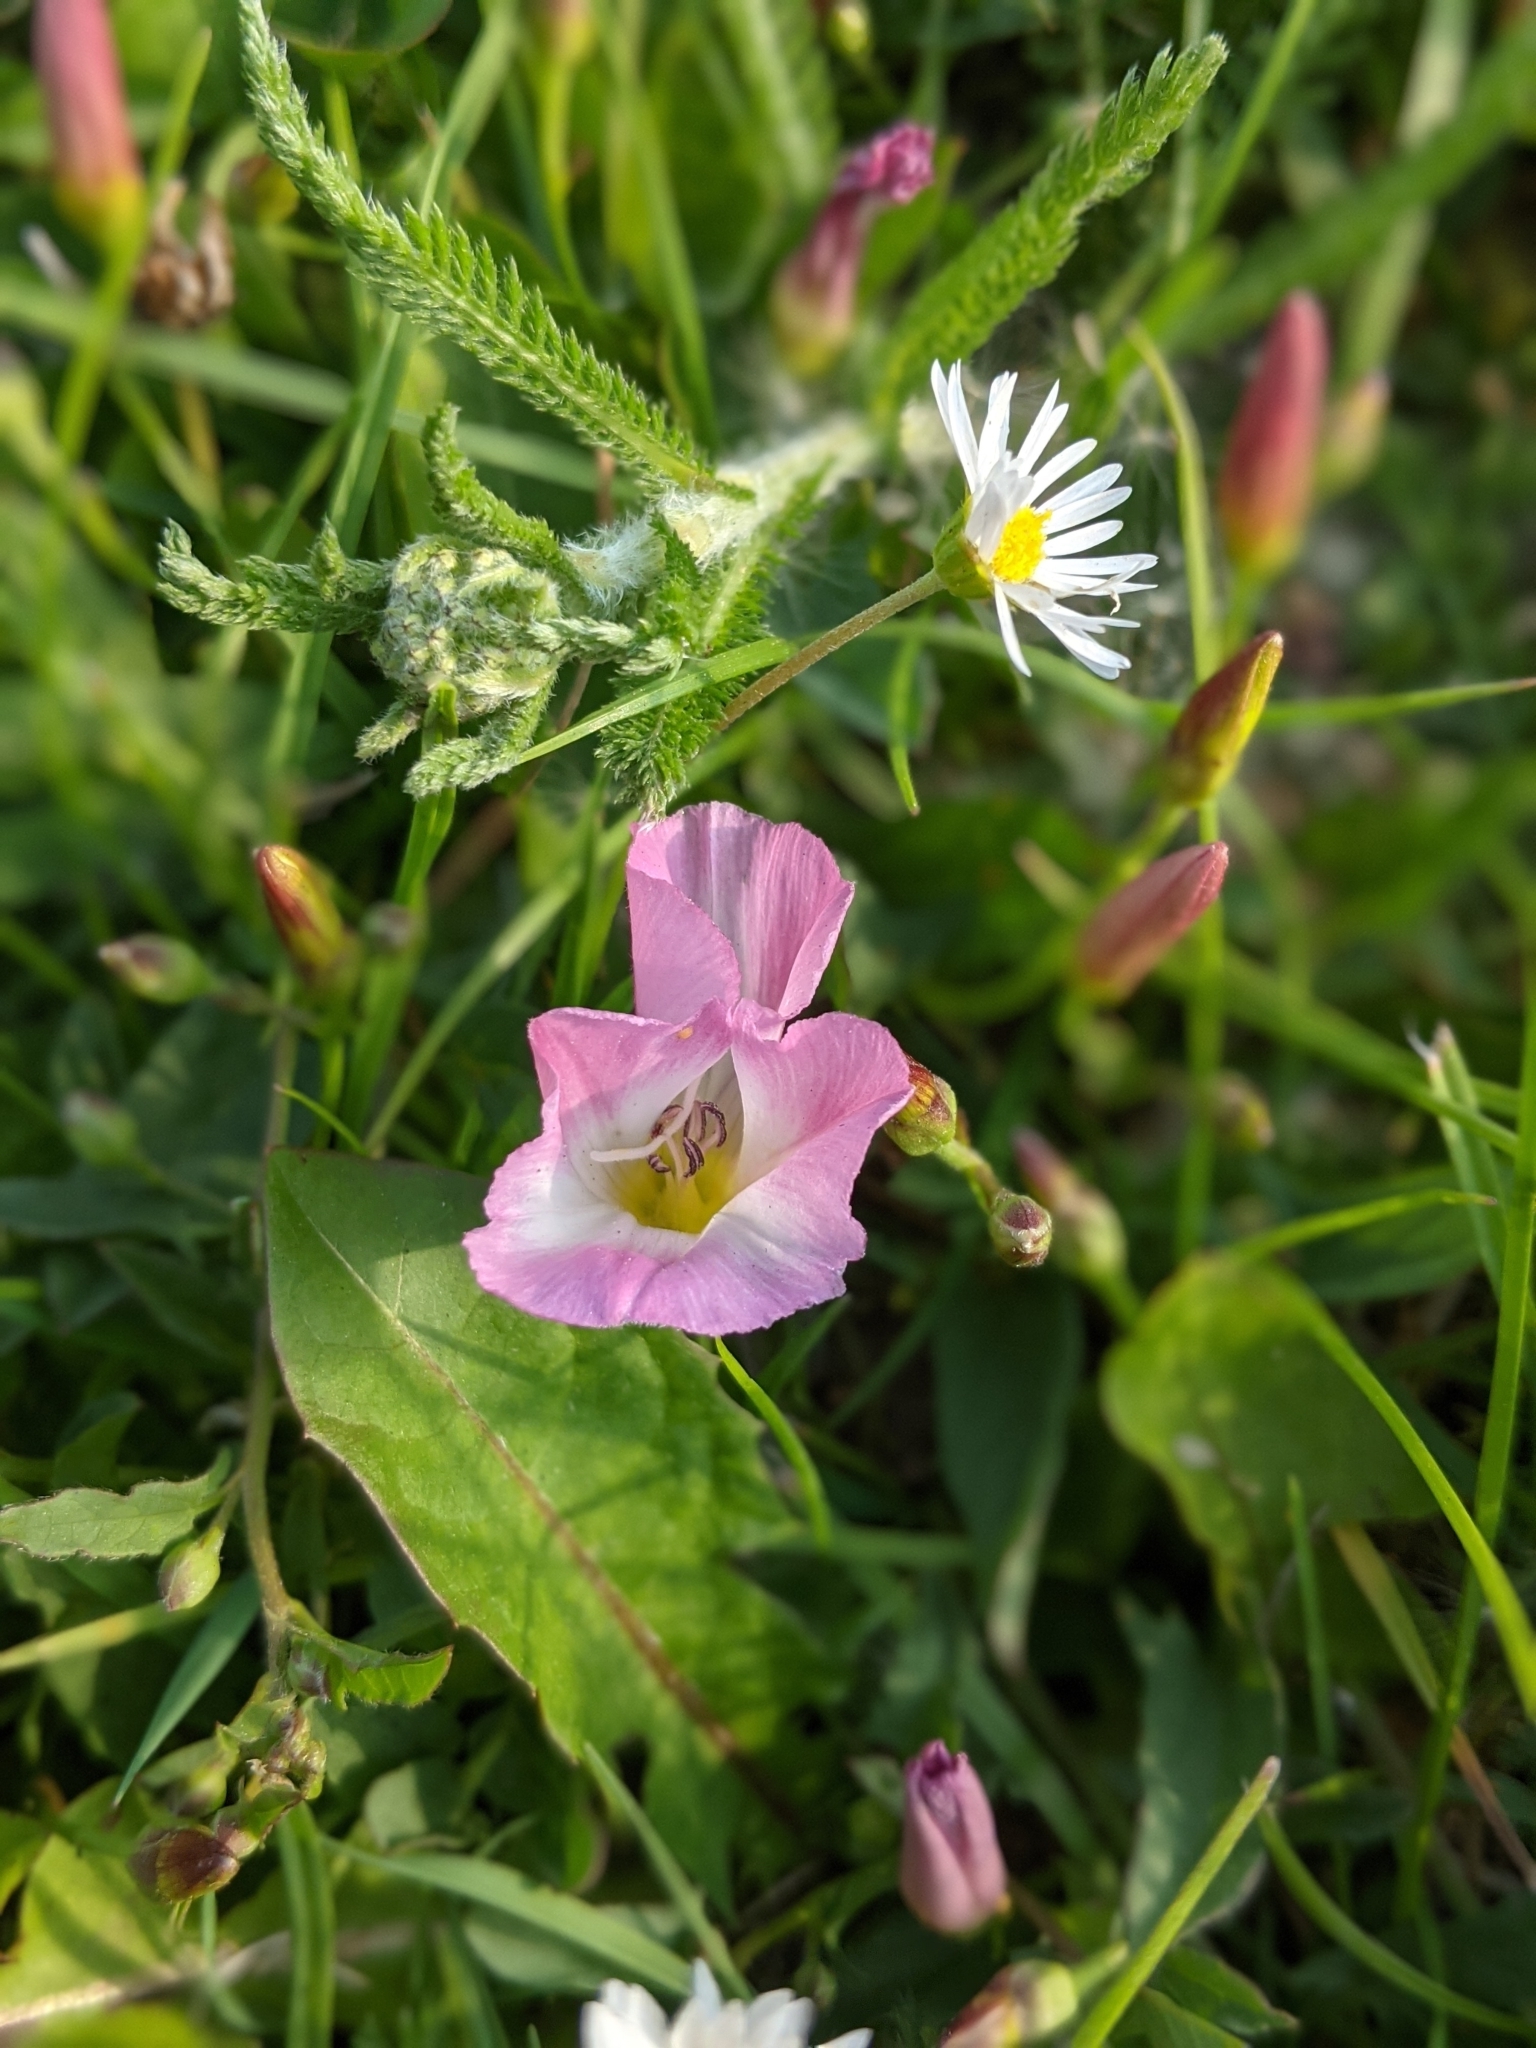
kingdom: Plantae
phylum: Tracheophyta
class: Magnoliopsida
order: Solanales
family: Convolvulaceae
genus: Convolvulus
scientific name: Convolvulus arvensis
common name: Field bindweed
